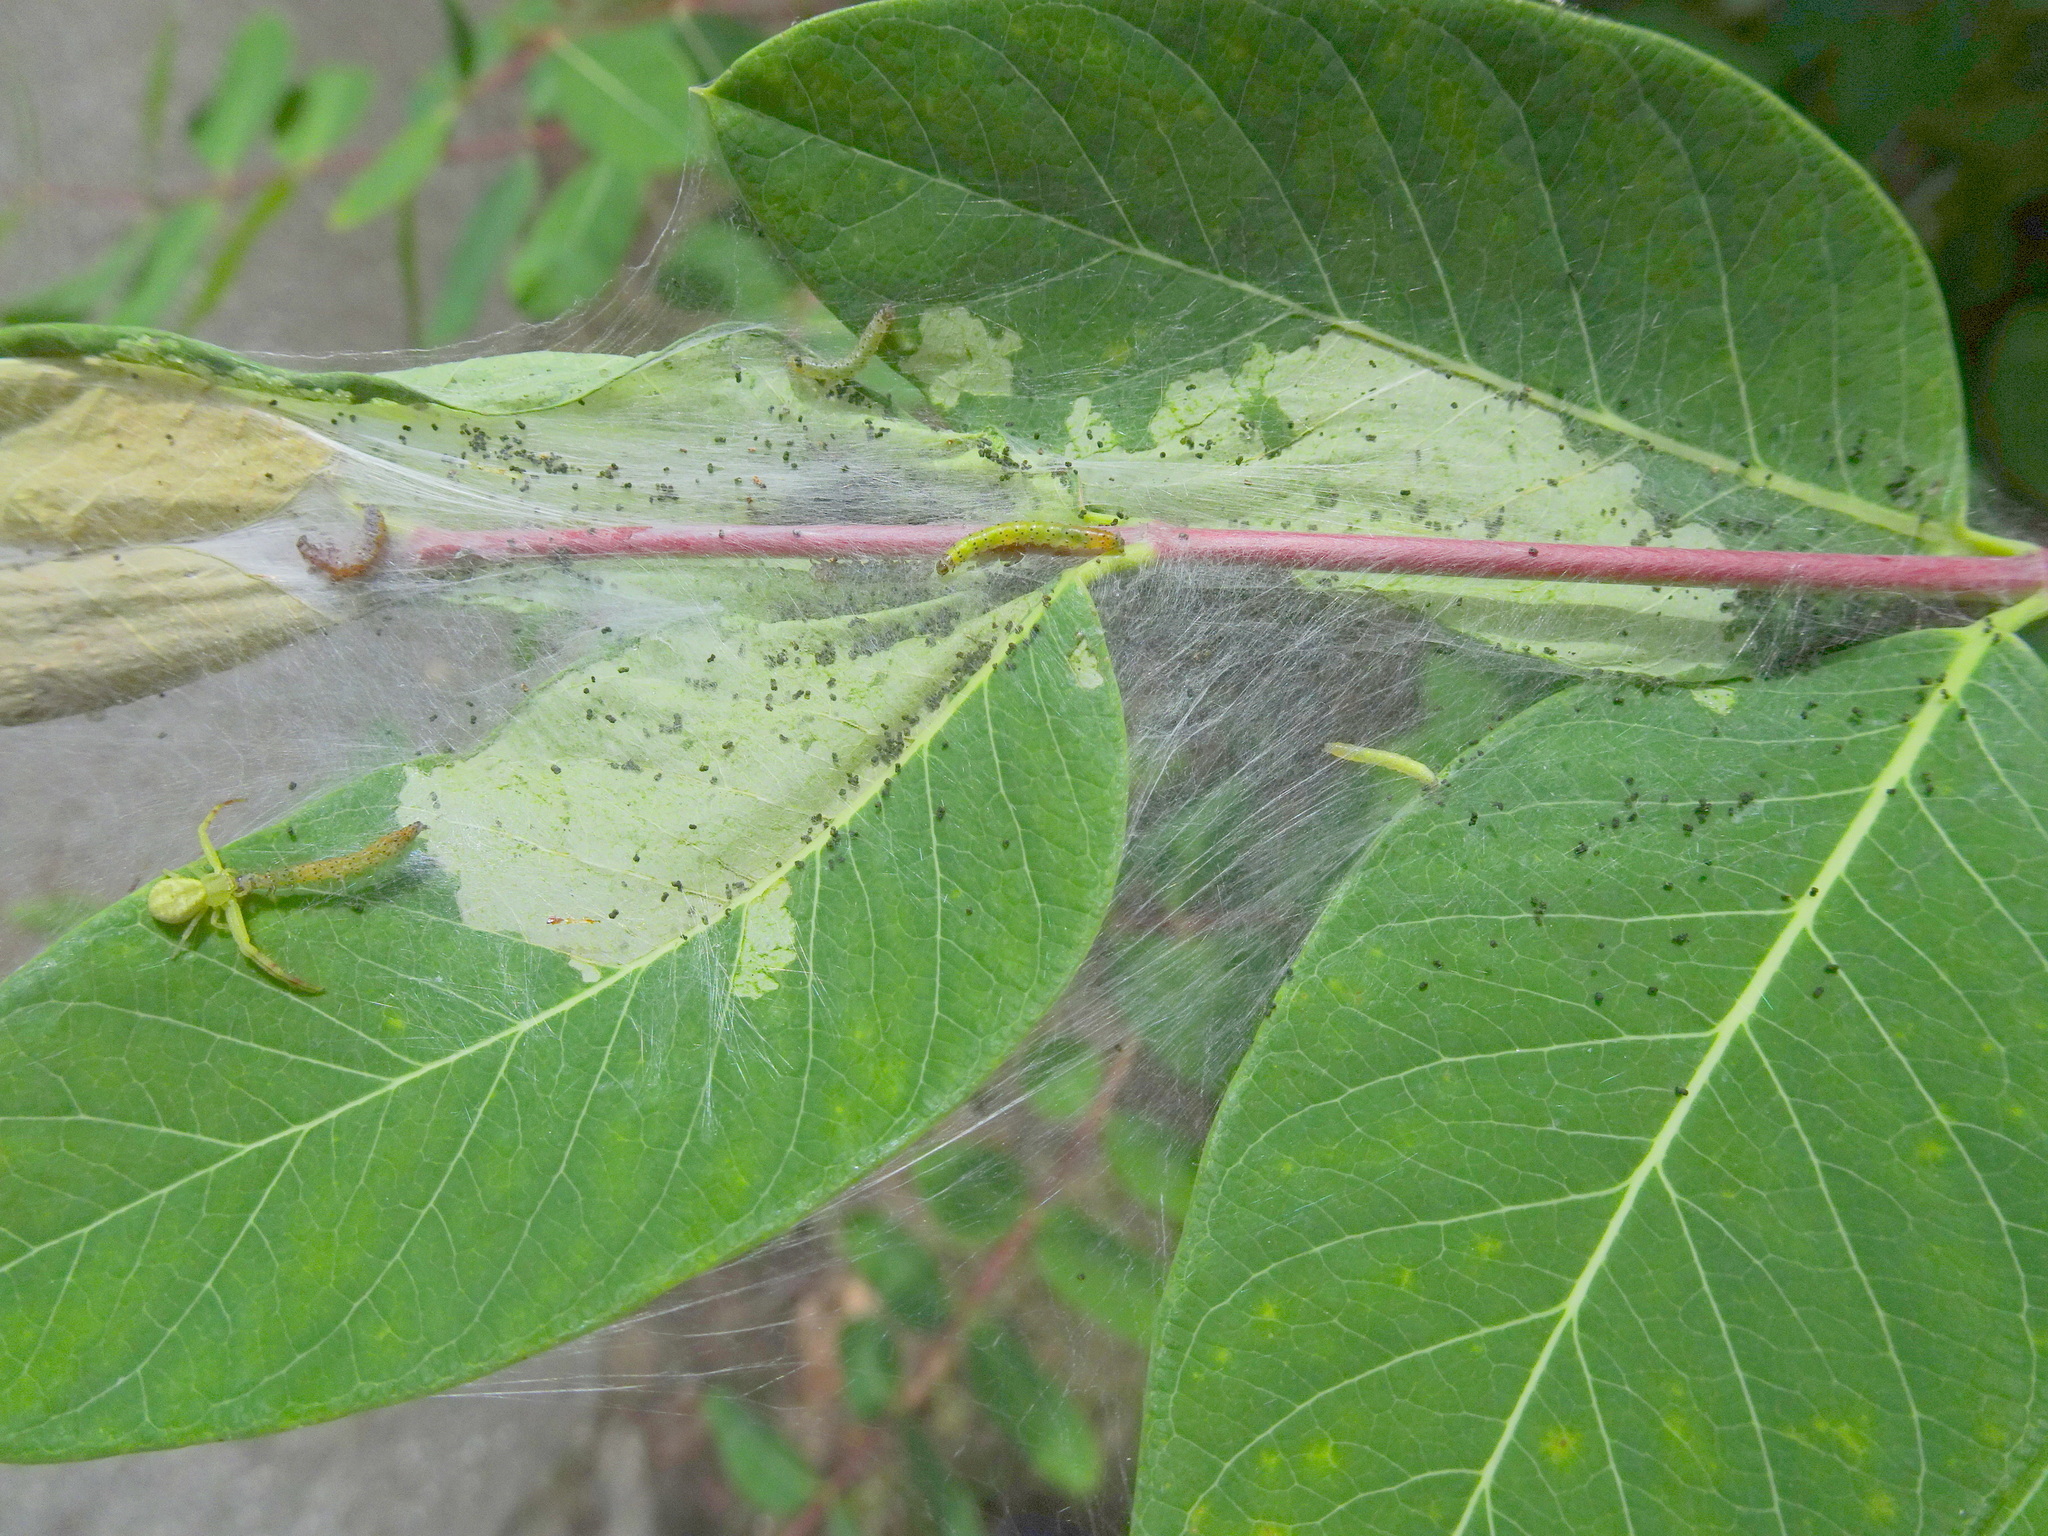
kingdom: Animalia
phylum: Arthropoda
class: Insecta
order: Lepidoptera
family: Crambidae
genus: Saucrobotys
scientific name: Saucrobotys futilalis
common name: Dogbane saucrobotys moth
